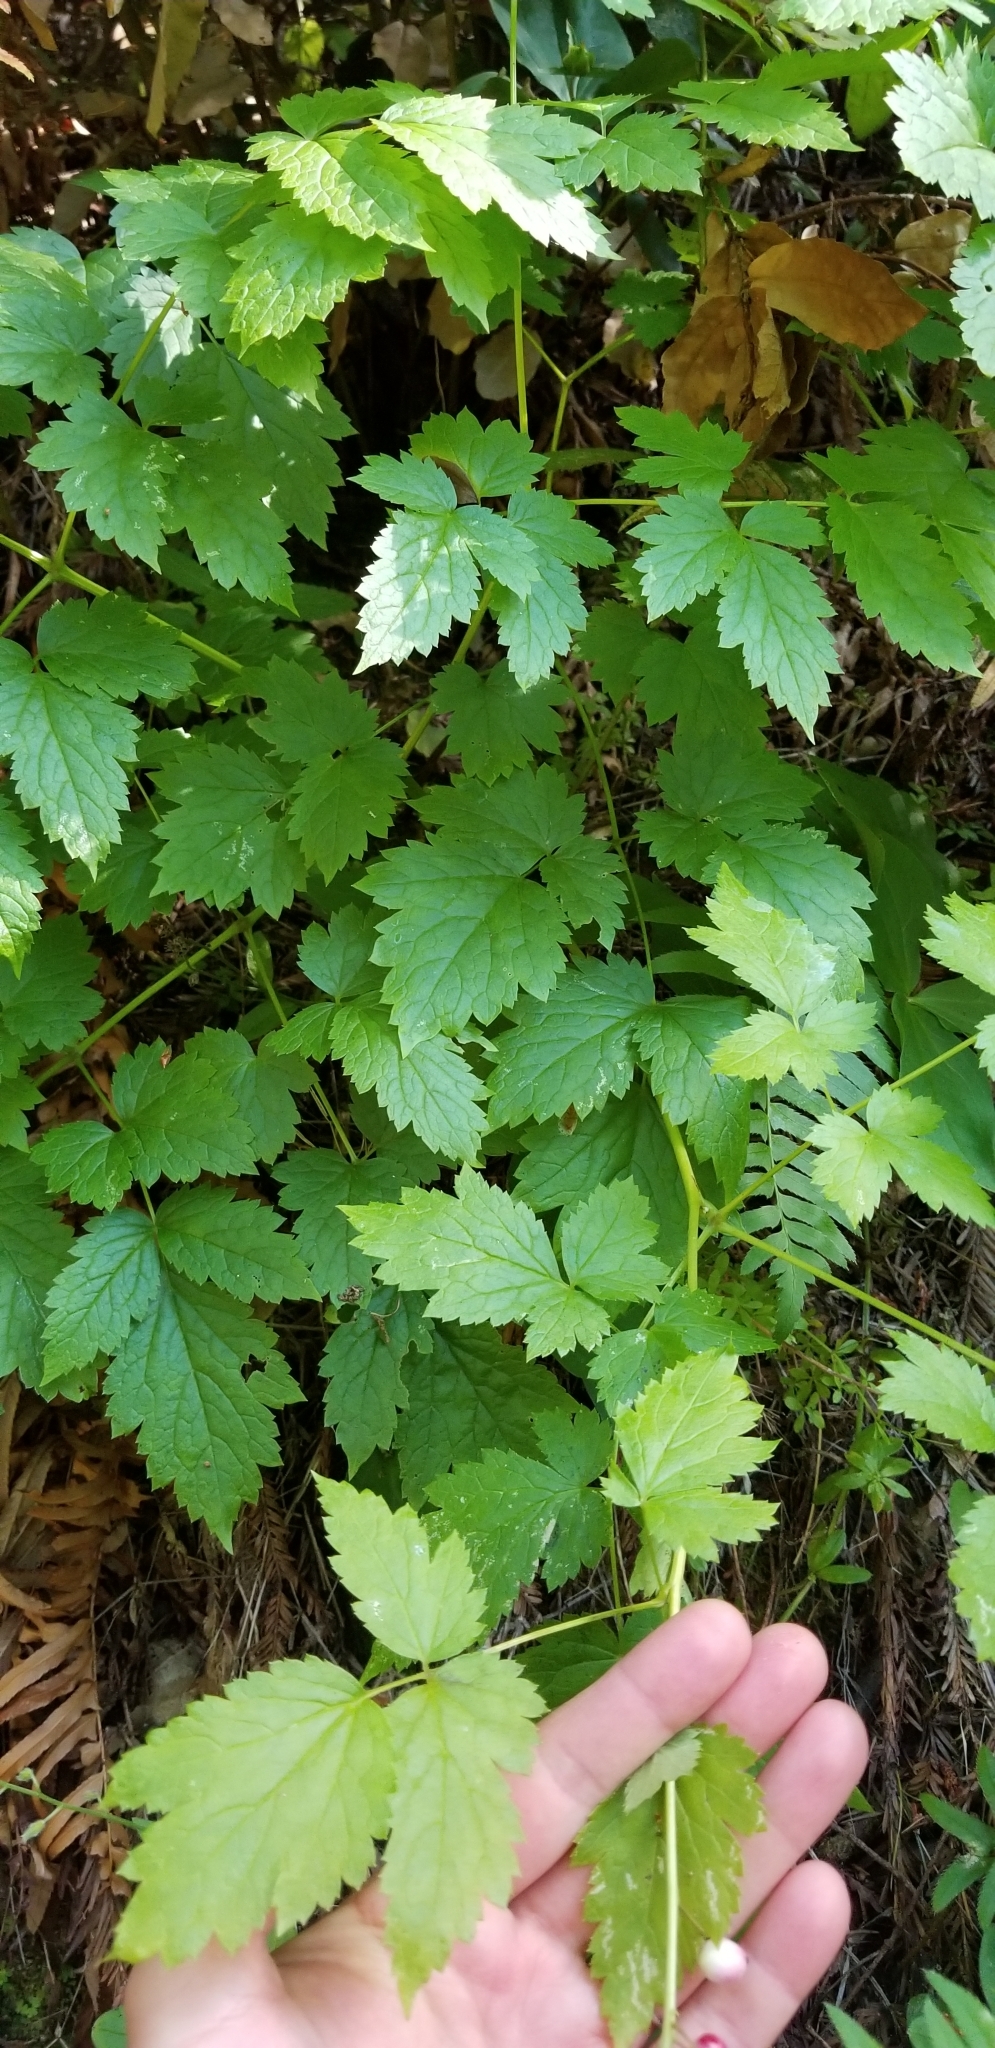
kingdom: Plantae
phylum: Tracheophyta
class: Magnoliopsida
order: Ranunculales
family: Ranunculaceae
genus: Actaea
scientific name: Actaea rubra
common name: Red baneberry
